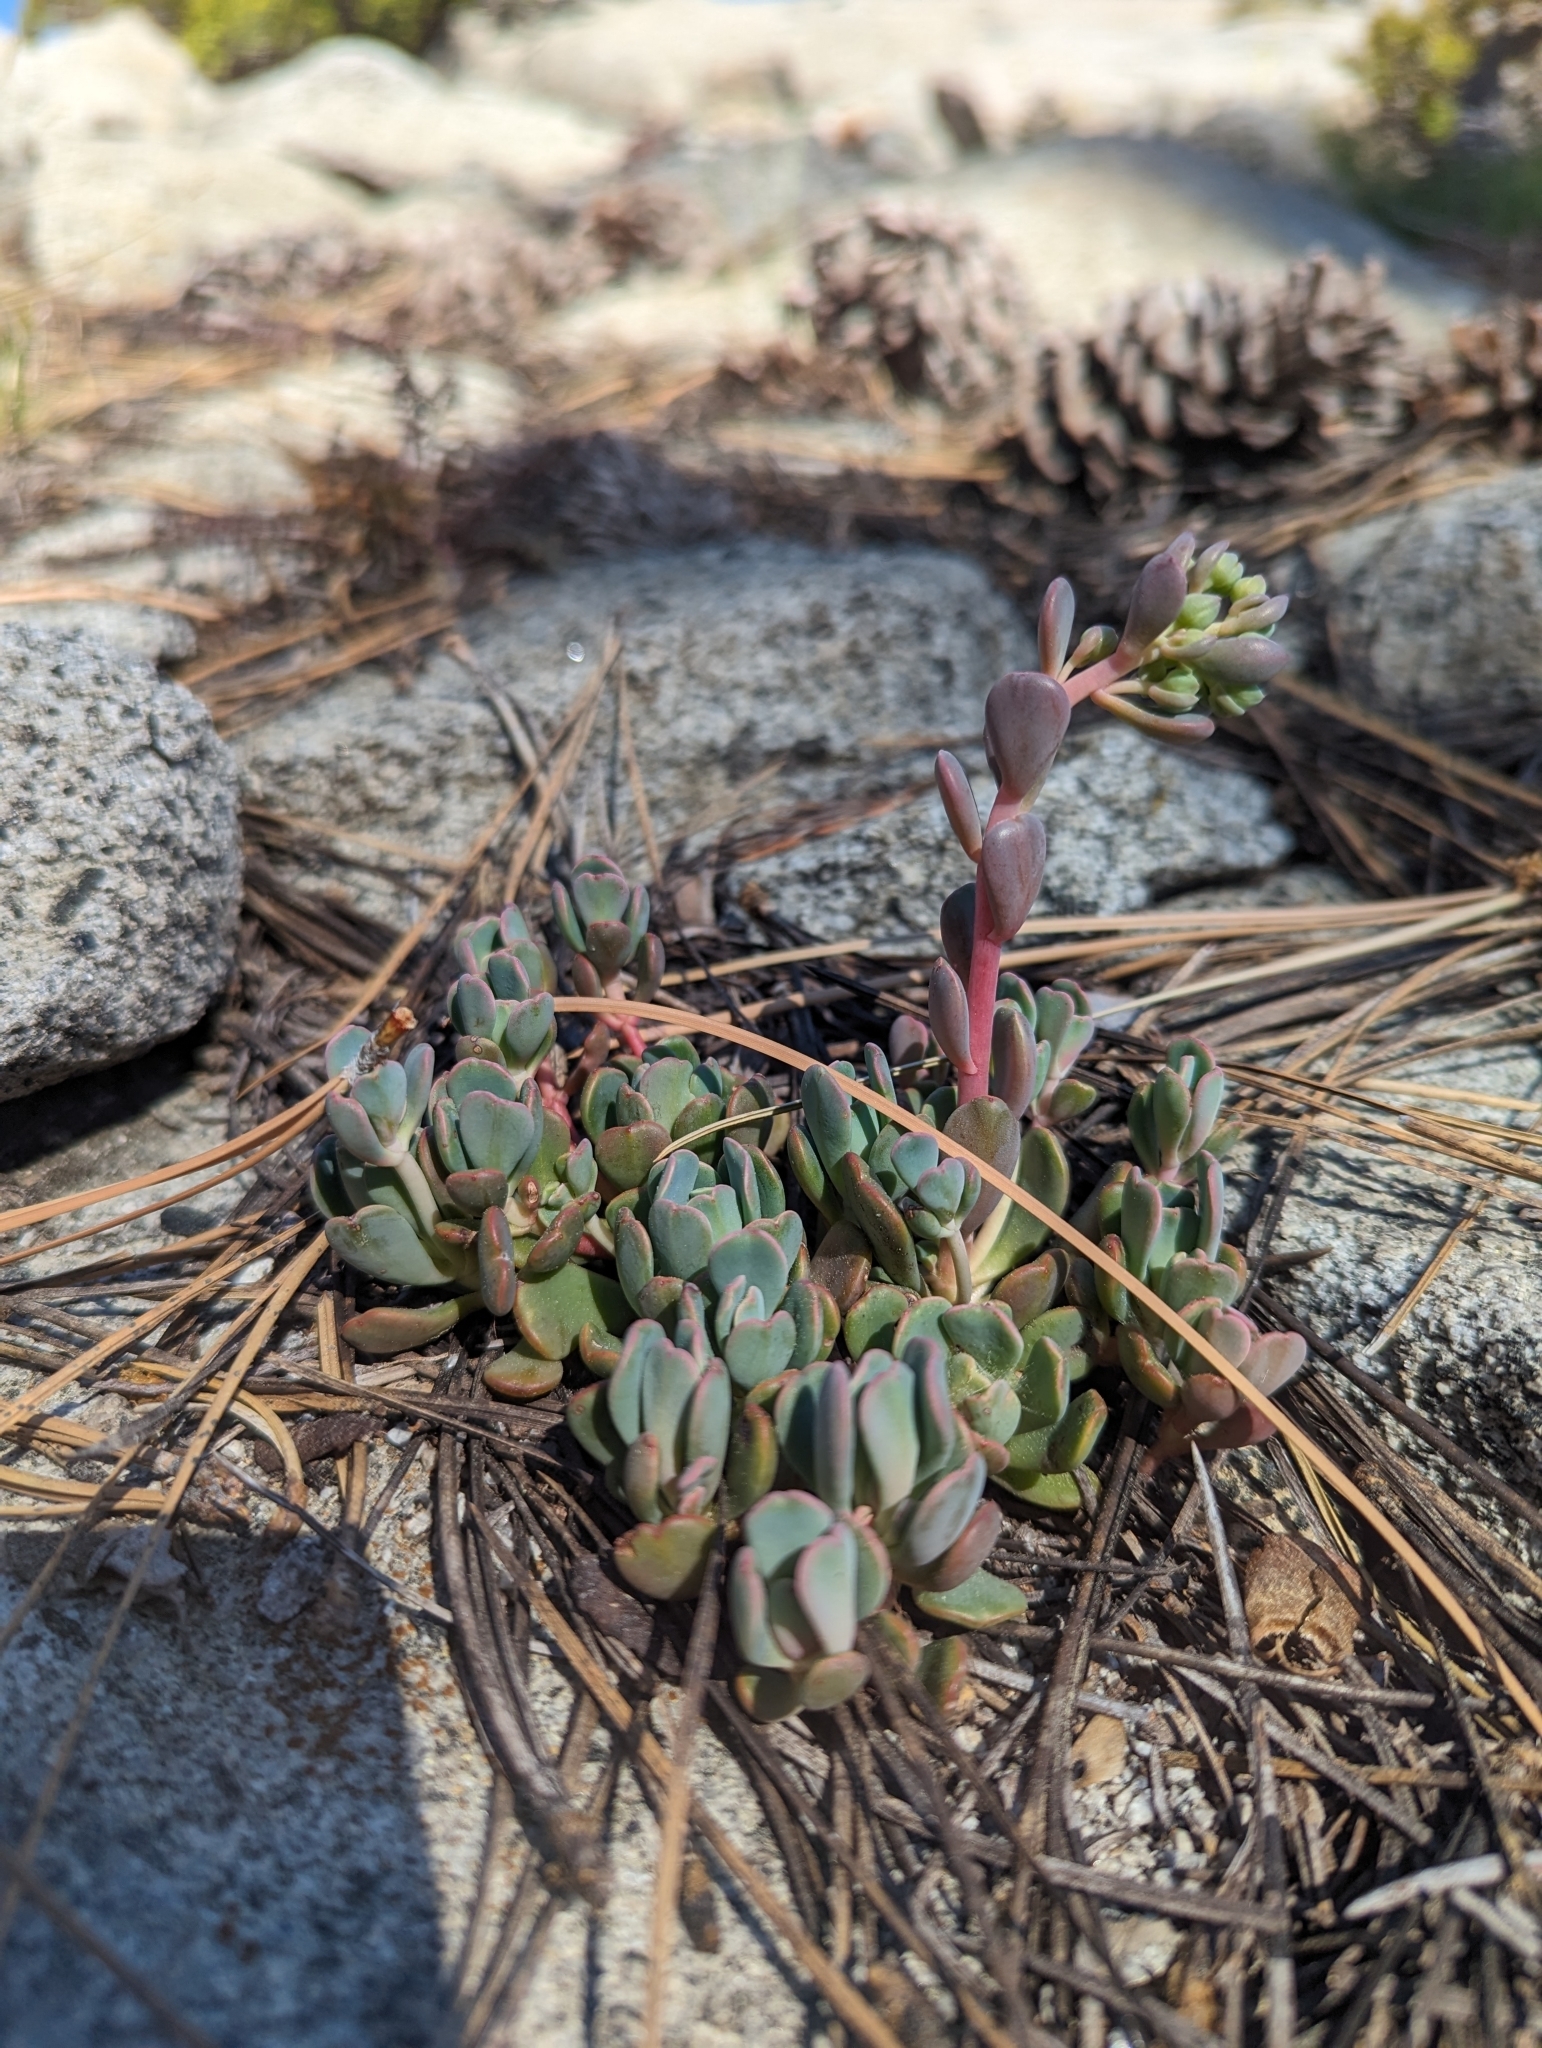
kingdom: Plantae
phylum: Tracheophyta
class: Magnoliopsida
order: Saxifragales
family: Crassulaceae
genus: Sedum
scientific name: Sedum obtusatum
